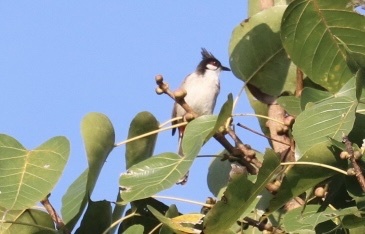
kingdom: Animalia
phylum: Chordata
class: Aves
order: Passeriformes
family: Pycnonotidae
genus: Pycnonotus
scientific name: Pycnonotus jocosus
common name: Red-whiskered bulbul
